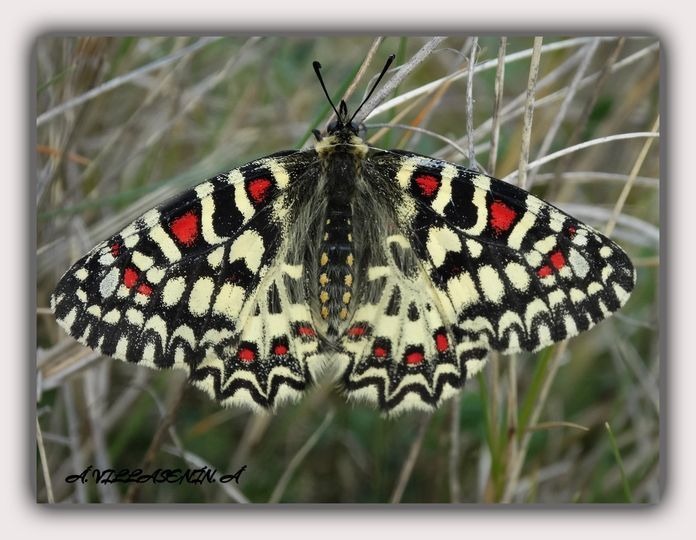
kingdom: Animalia
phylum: Arthropoda
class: Insecta
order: Lepidoptera
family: Papilionidae
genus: Zerynthia
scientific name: Zerynthia rumina
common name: Spanish festoon
